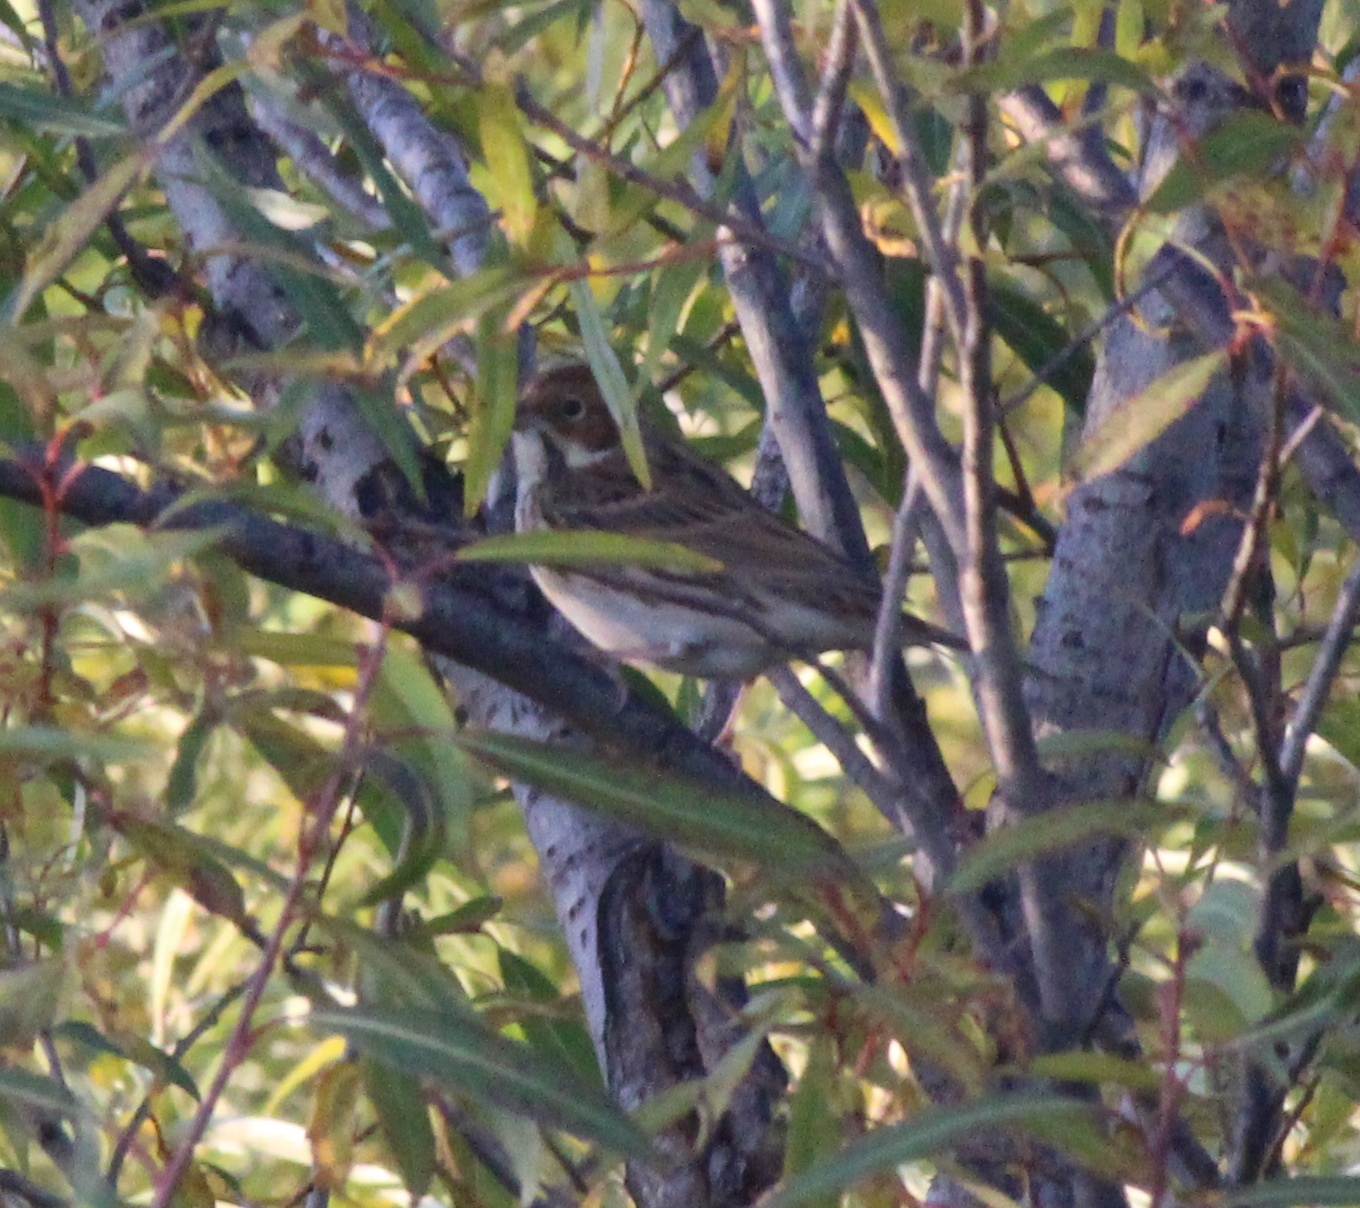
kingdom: Animalia
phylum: Chordata
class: Aves
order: Passeriformes
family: Emberizidae
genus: Emberiza
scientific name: Emberiza pusilla
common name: Little bunting
